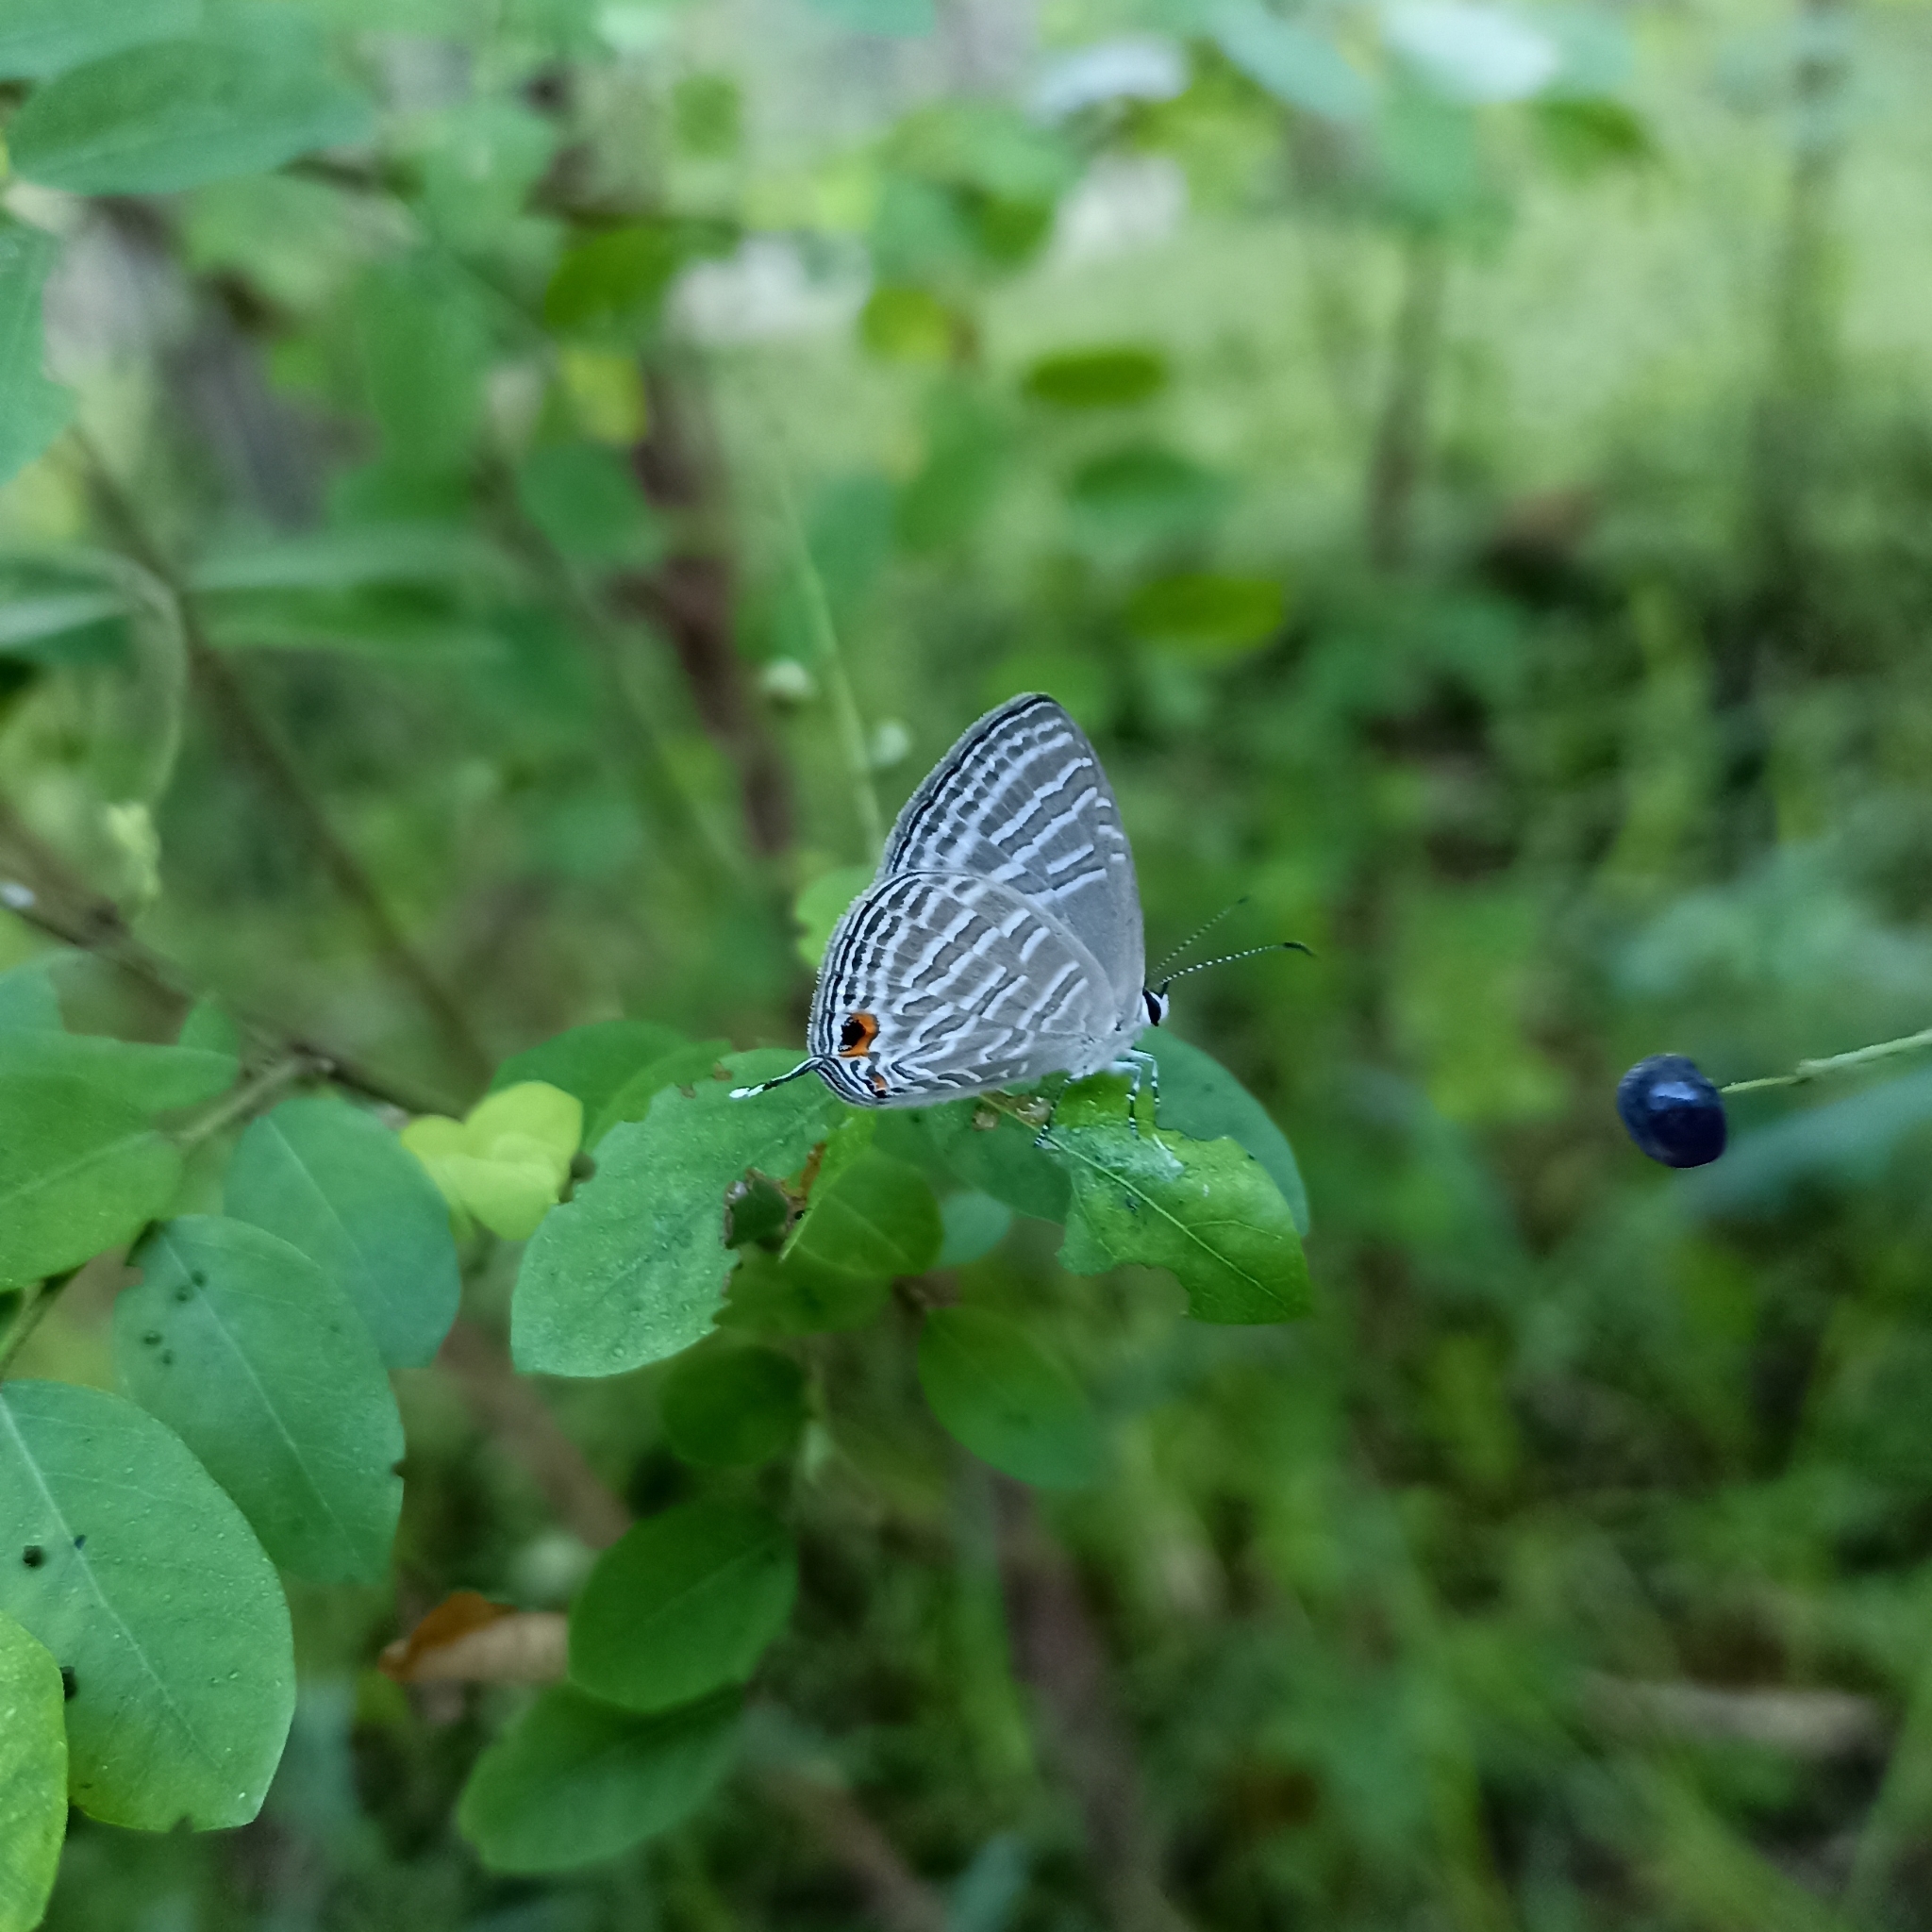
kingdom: Animalia
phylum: Arthropoda
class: Insecta
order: Lepidoptera
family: Lycaenidae
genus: Jamides
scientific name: Jamides celeno
